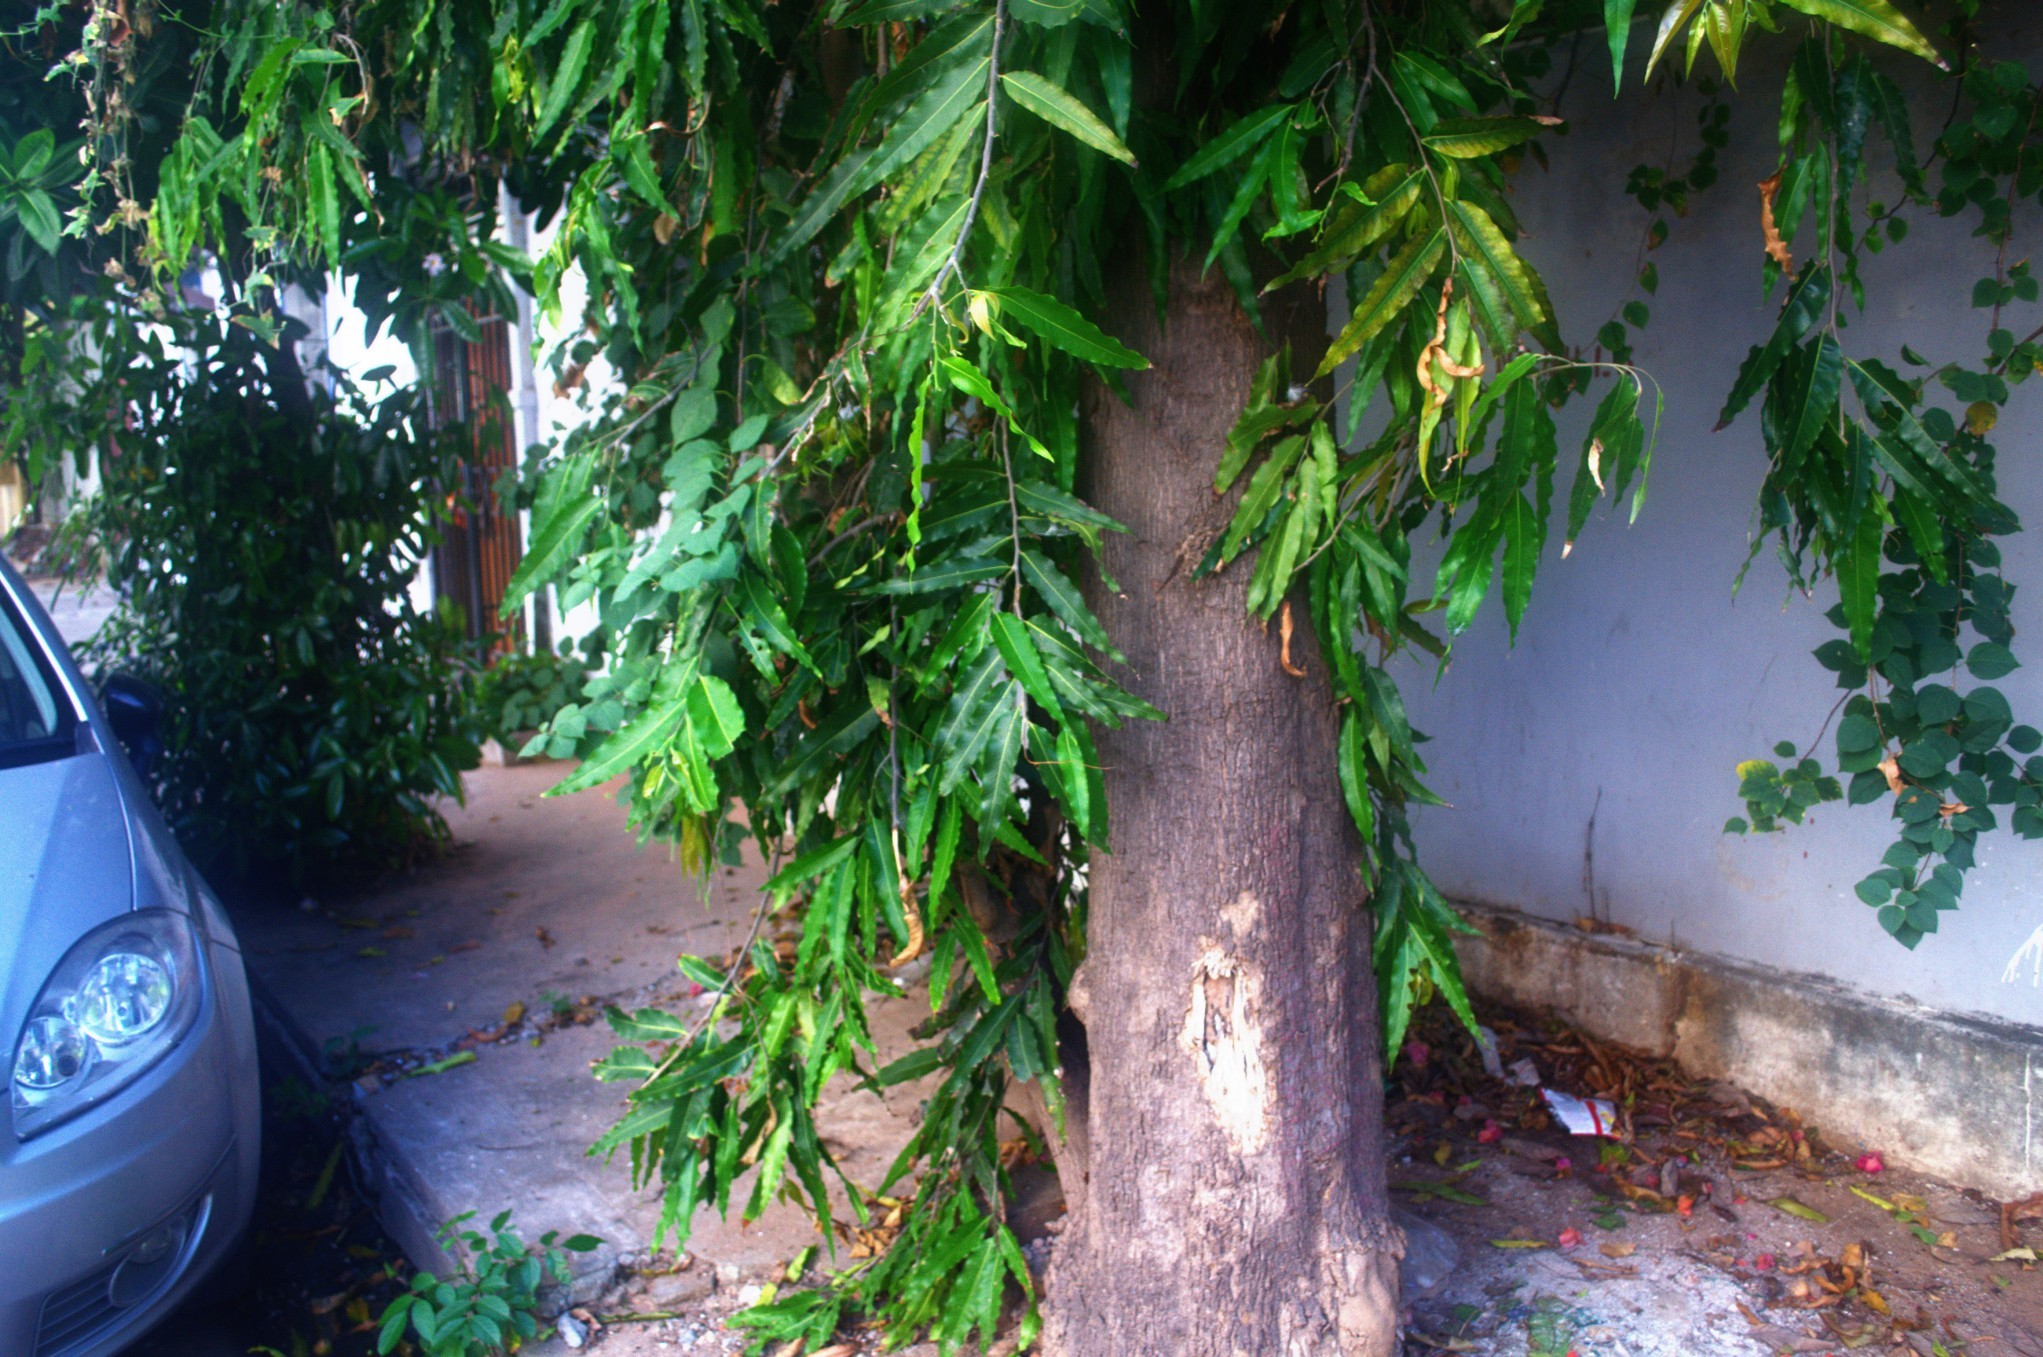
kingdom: Plantae
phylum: Tracheophyta
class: Magnoliopsida
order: Magnoliales
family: Annonaceae
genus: Polyalthia
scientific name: Polyalthia longifolia
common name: Cemetery-tree
